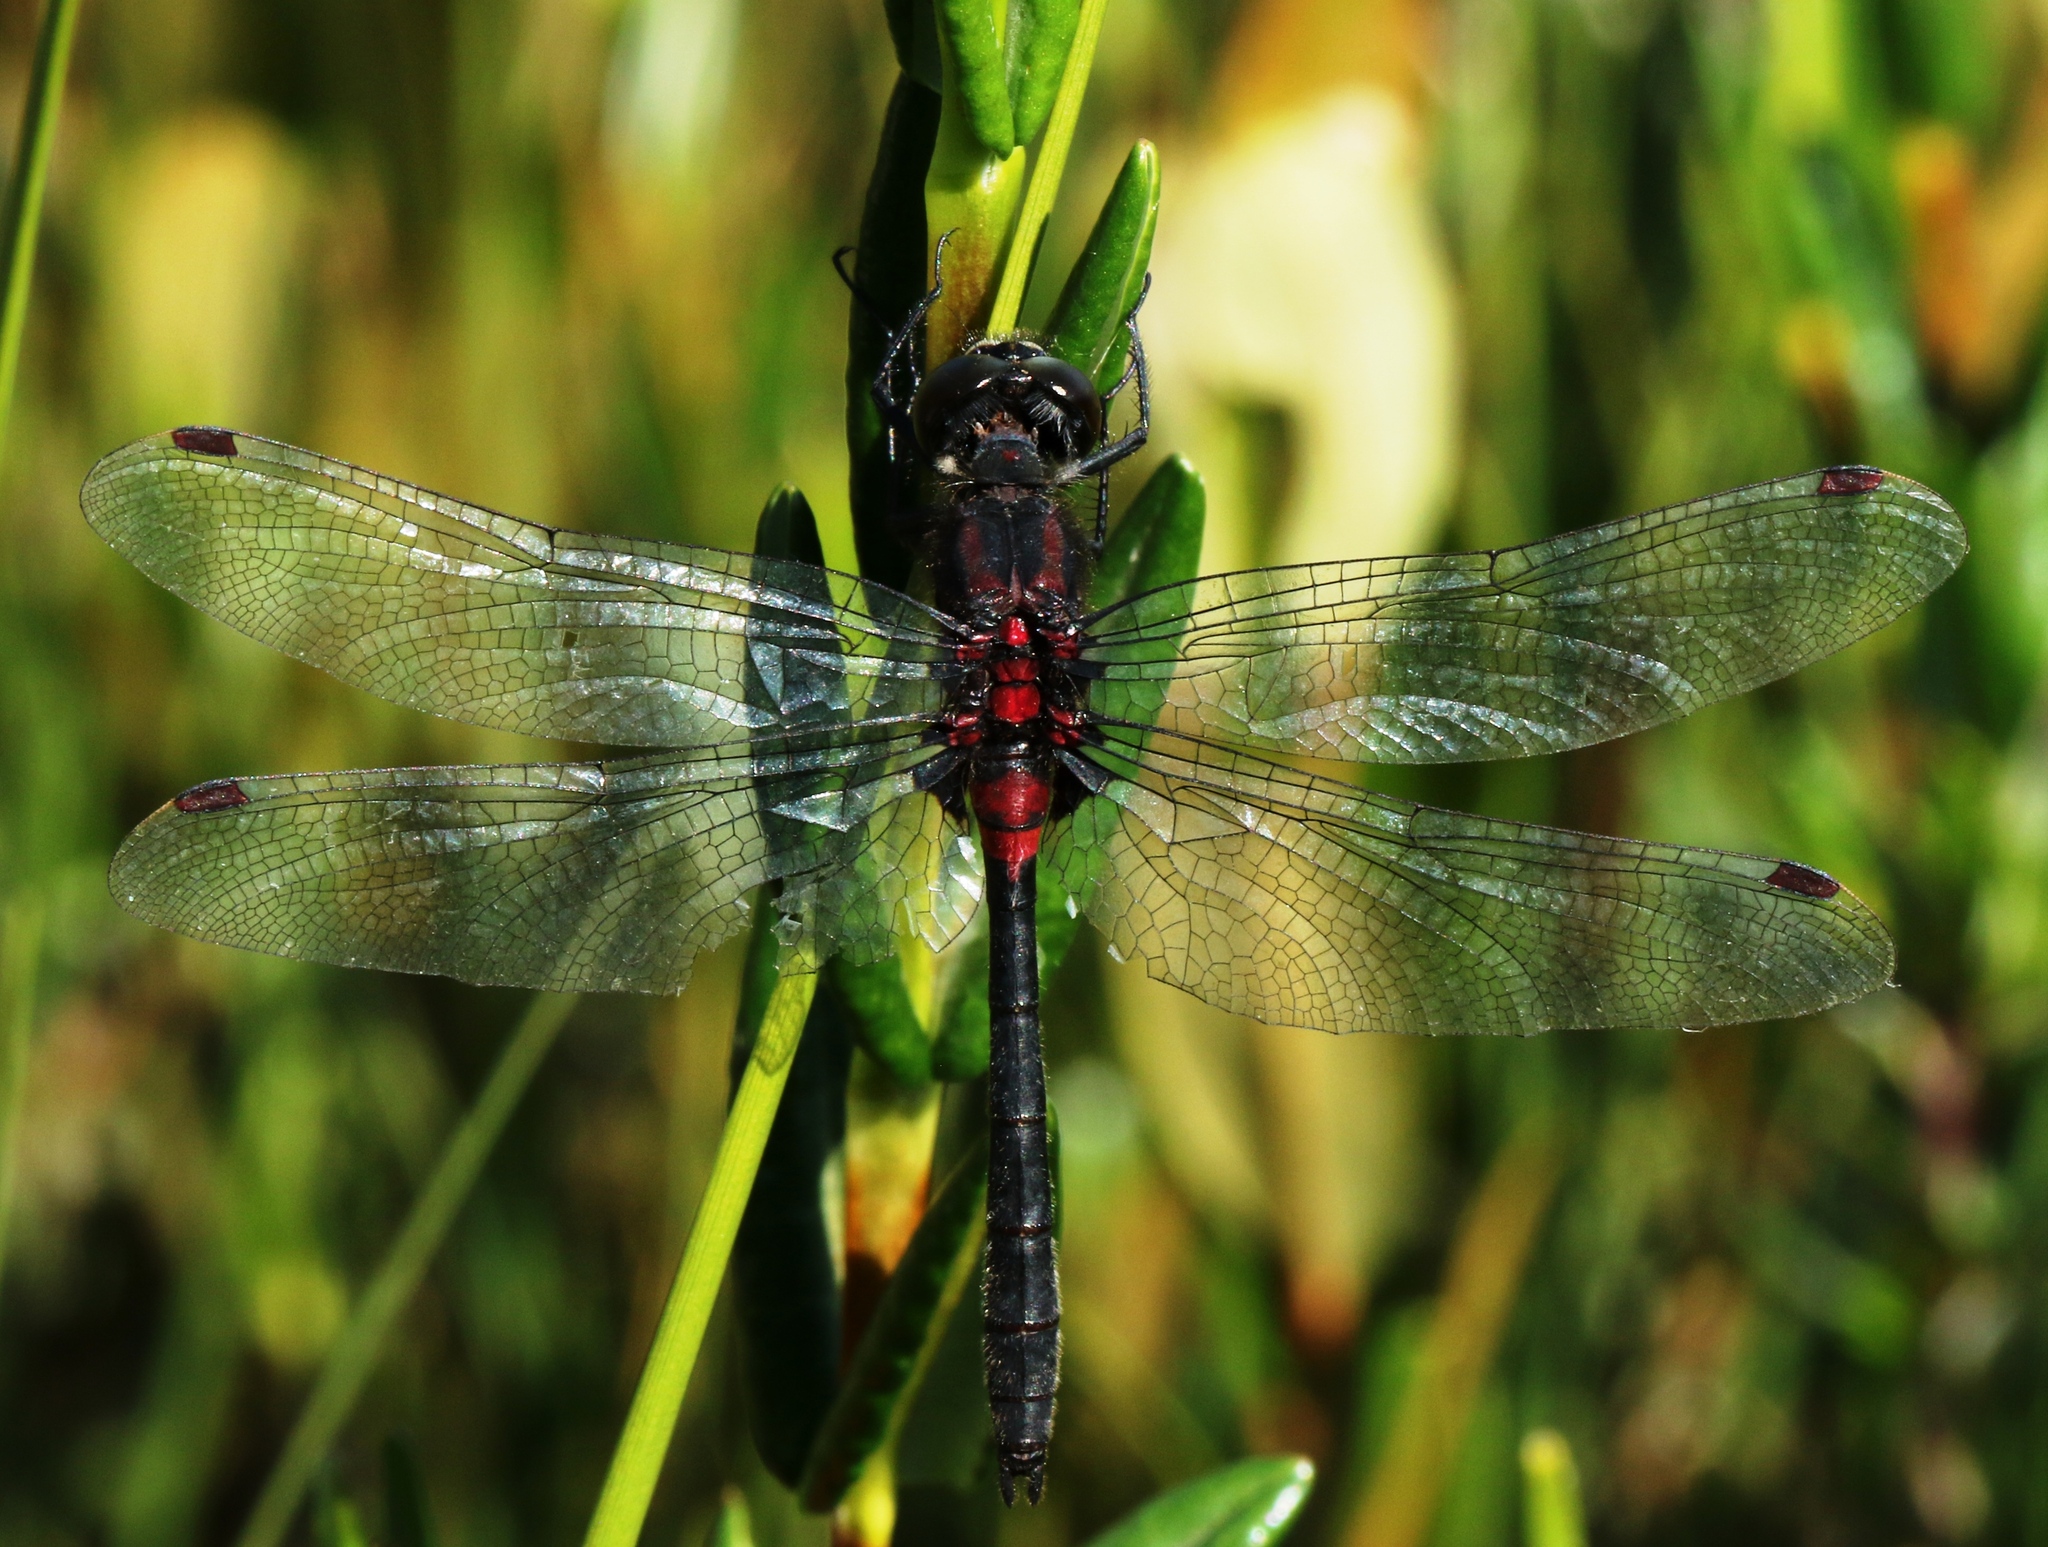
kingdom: Animalia
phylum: Arthropoda
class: Insecta
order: Odonata
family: Libellulidae
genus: Leucorrhinia
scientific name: Leucorrhinia glacialis
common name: Crimson-ringed whiteface
